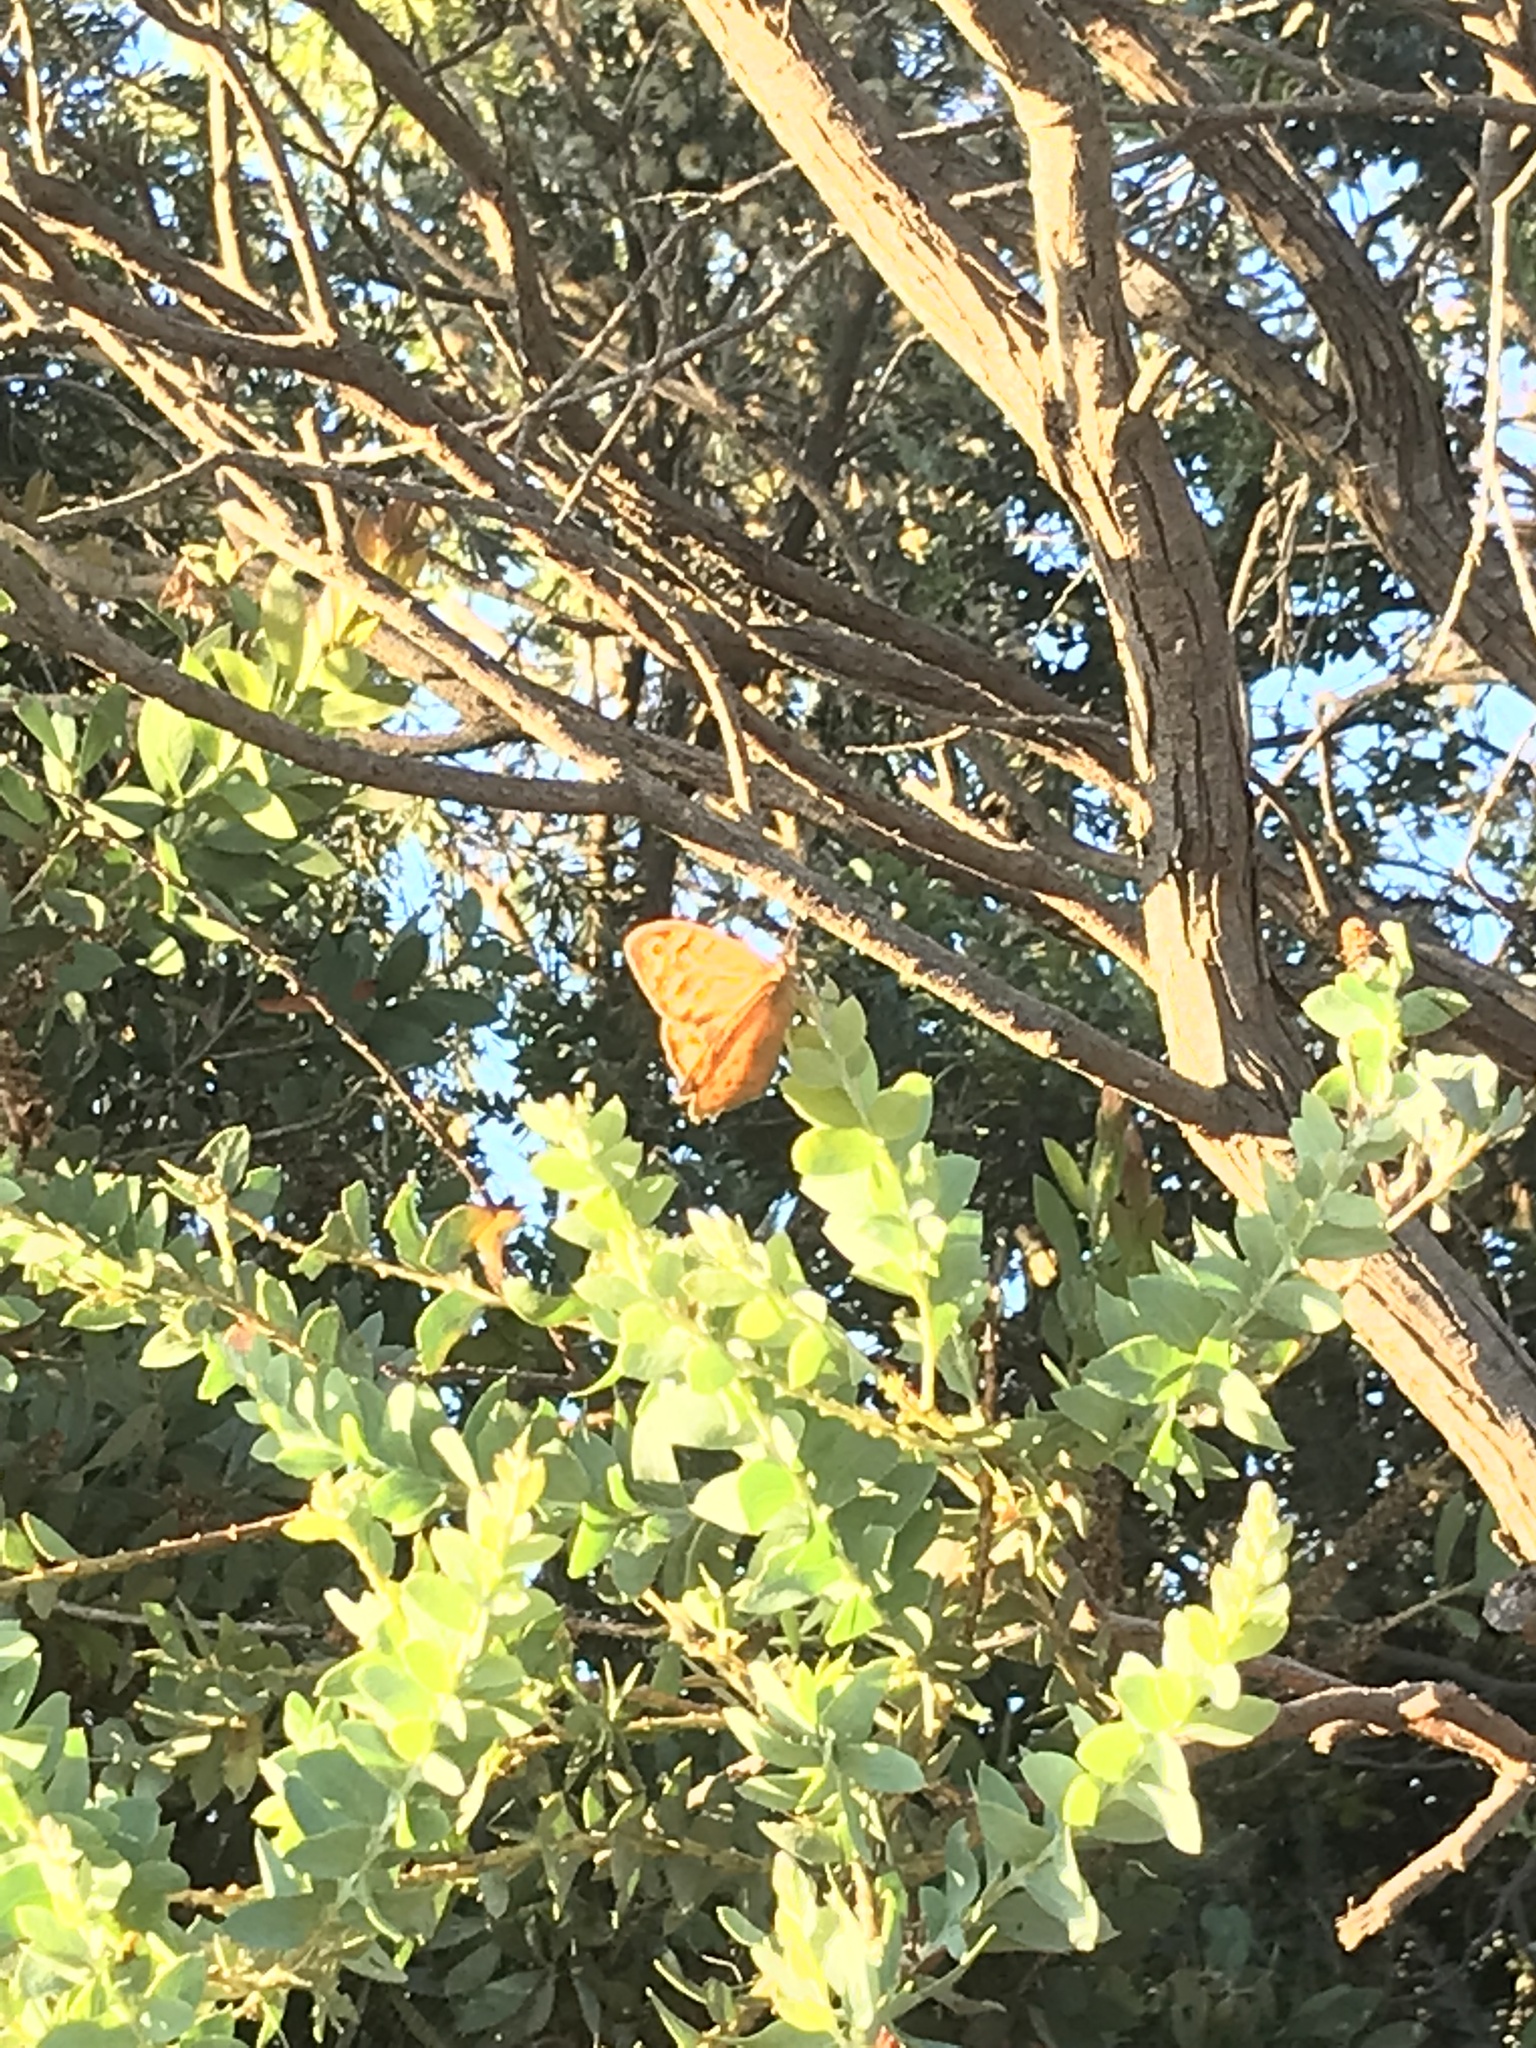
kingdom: Animalia
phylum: Arthropoda
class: Insecta
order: Lepidoptera
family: Nymphalidae
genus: Heteronympha
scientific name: Heteronympha merope
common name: Common brown
